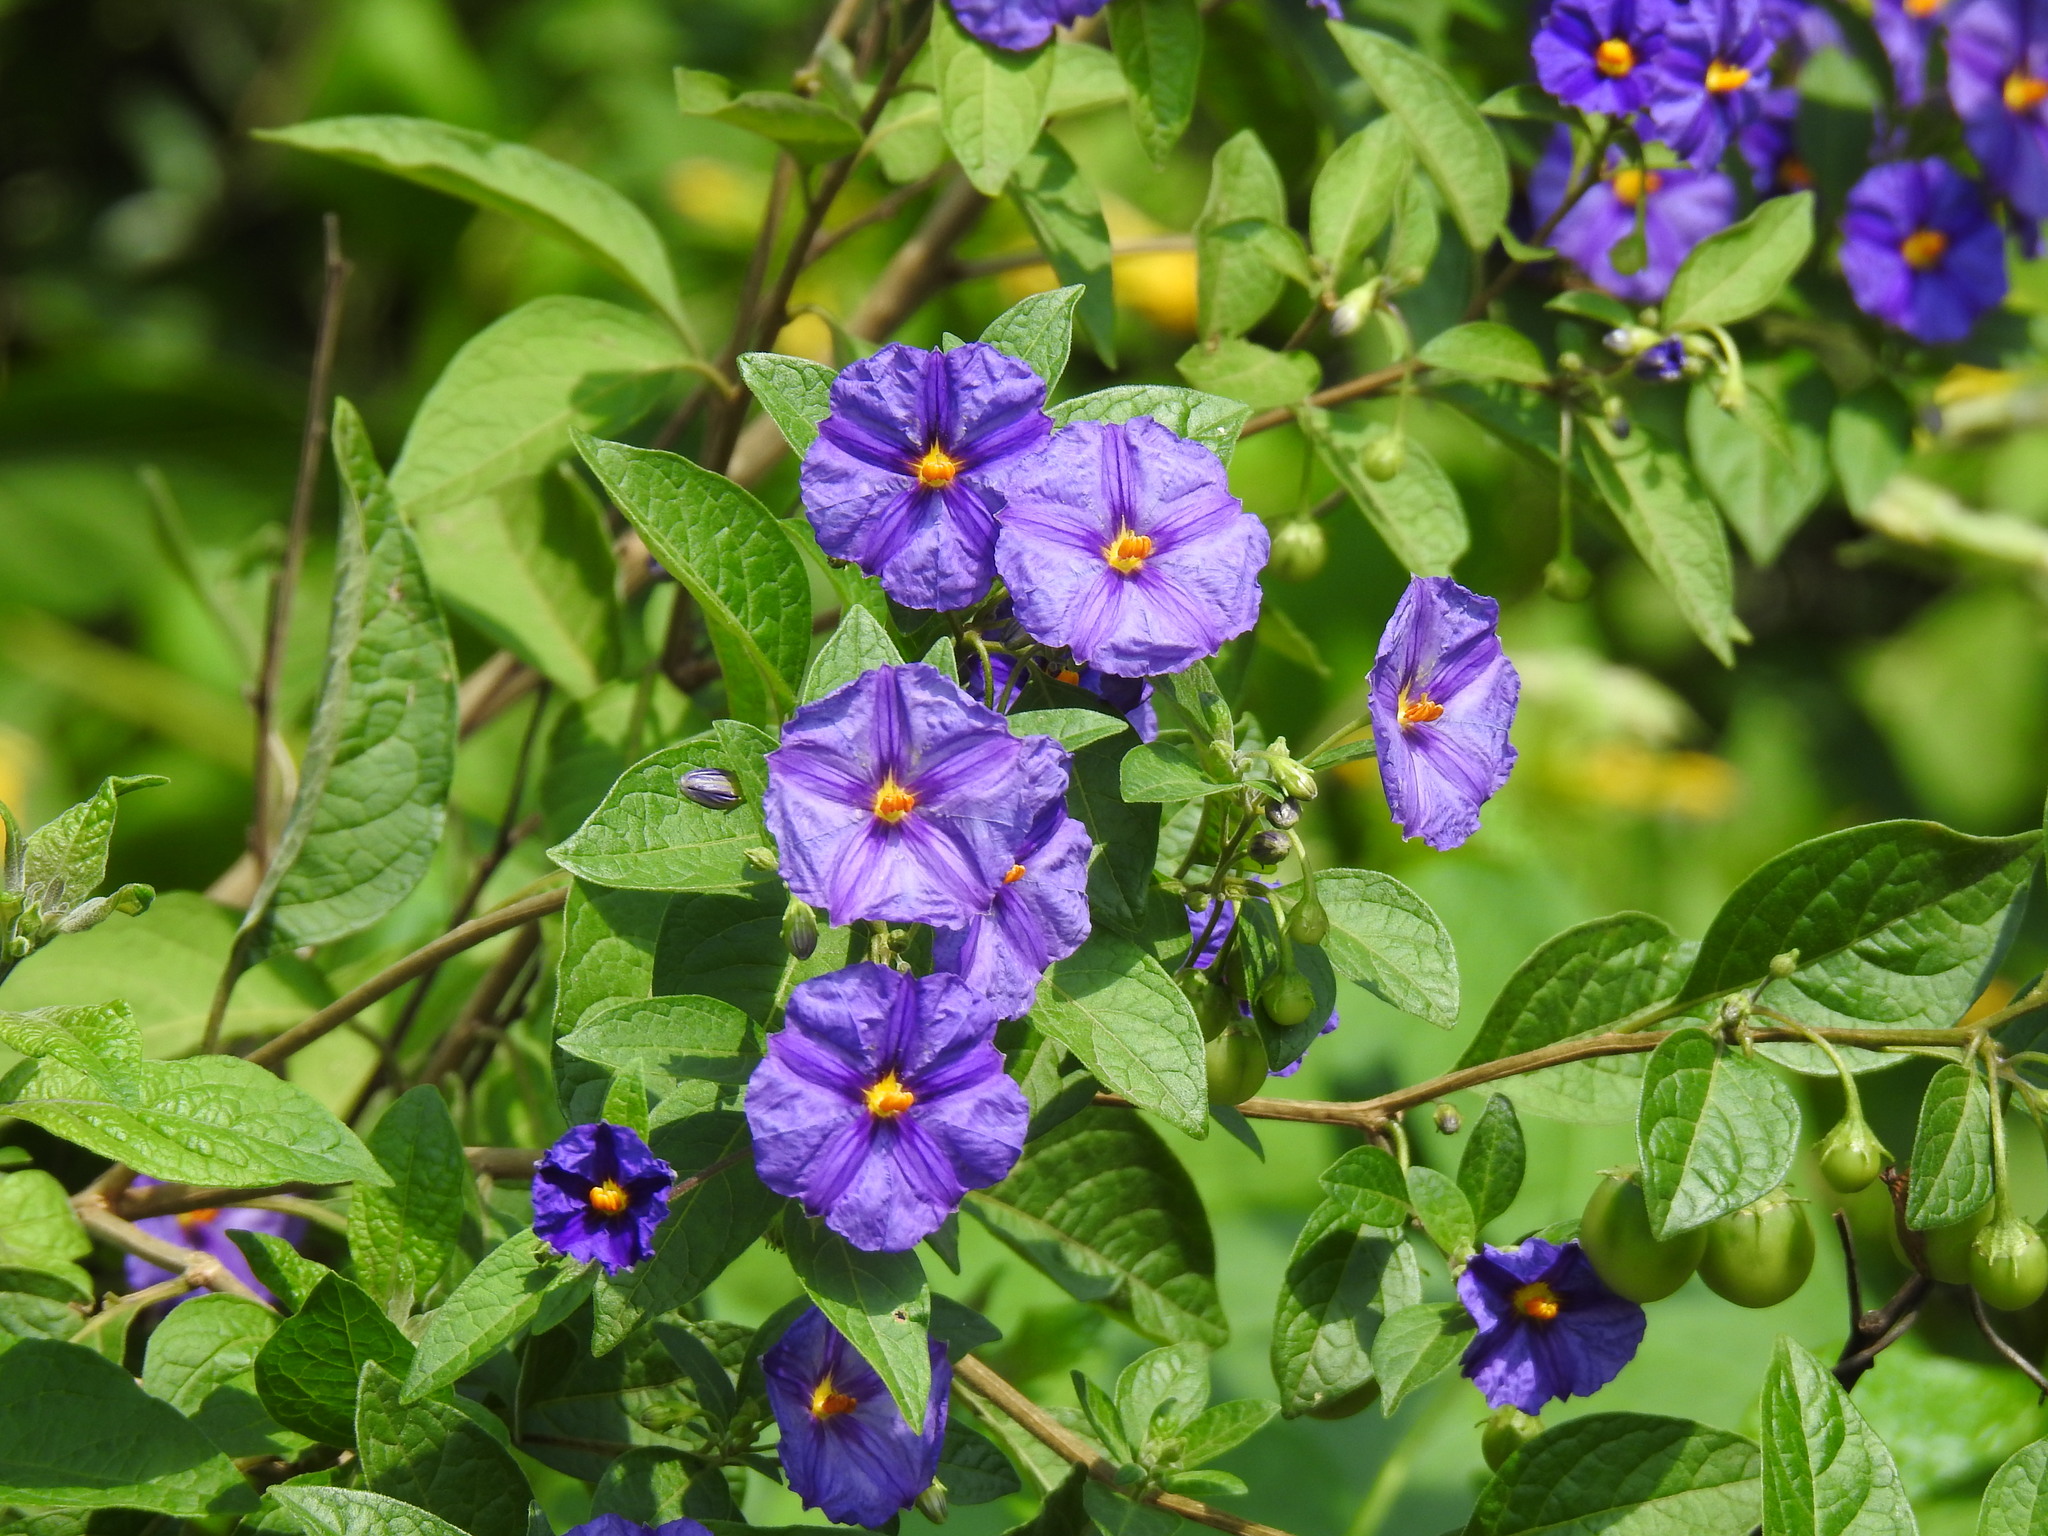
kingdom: Plantae
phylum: Tracheophyta
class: Magnoliopsida
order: Solanales
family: Solanaceae
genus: Lycianthes
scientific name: Lycianthes rantonnetii
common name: Blue potatobush
